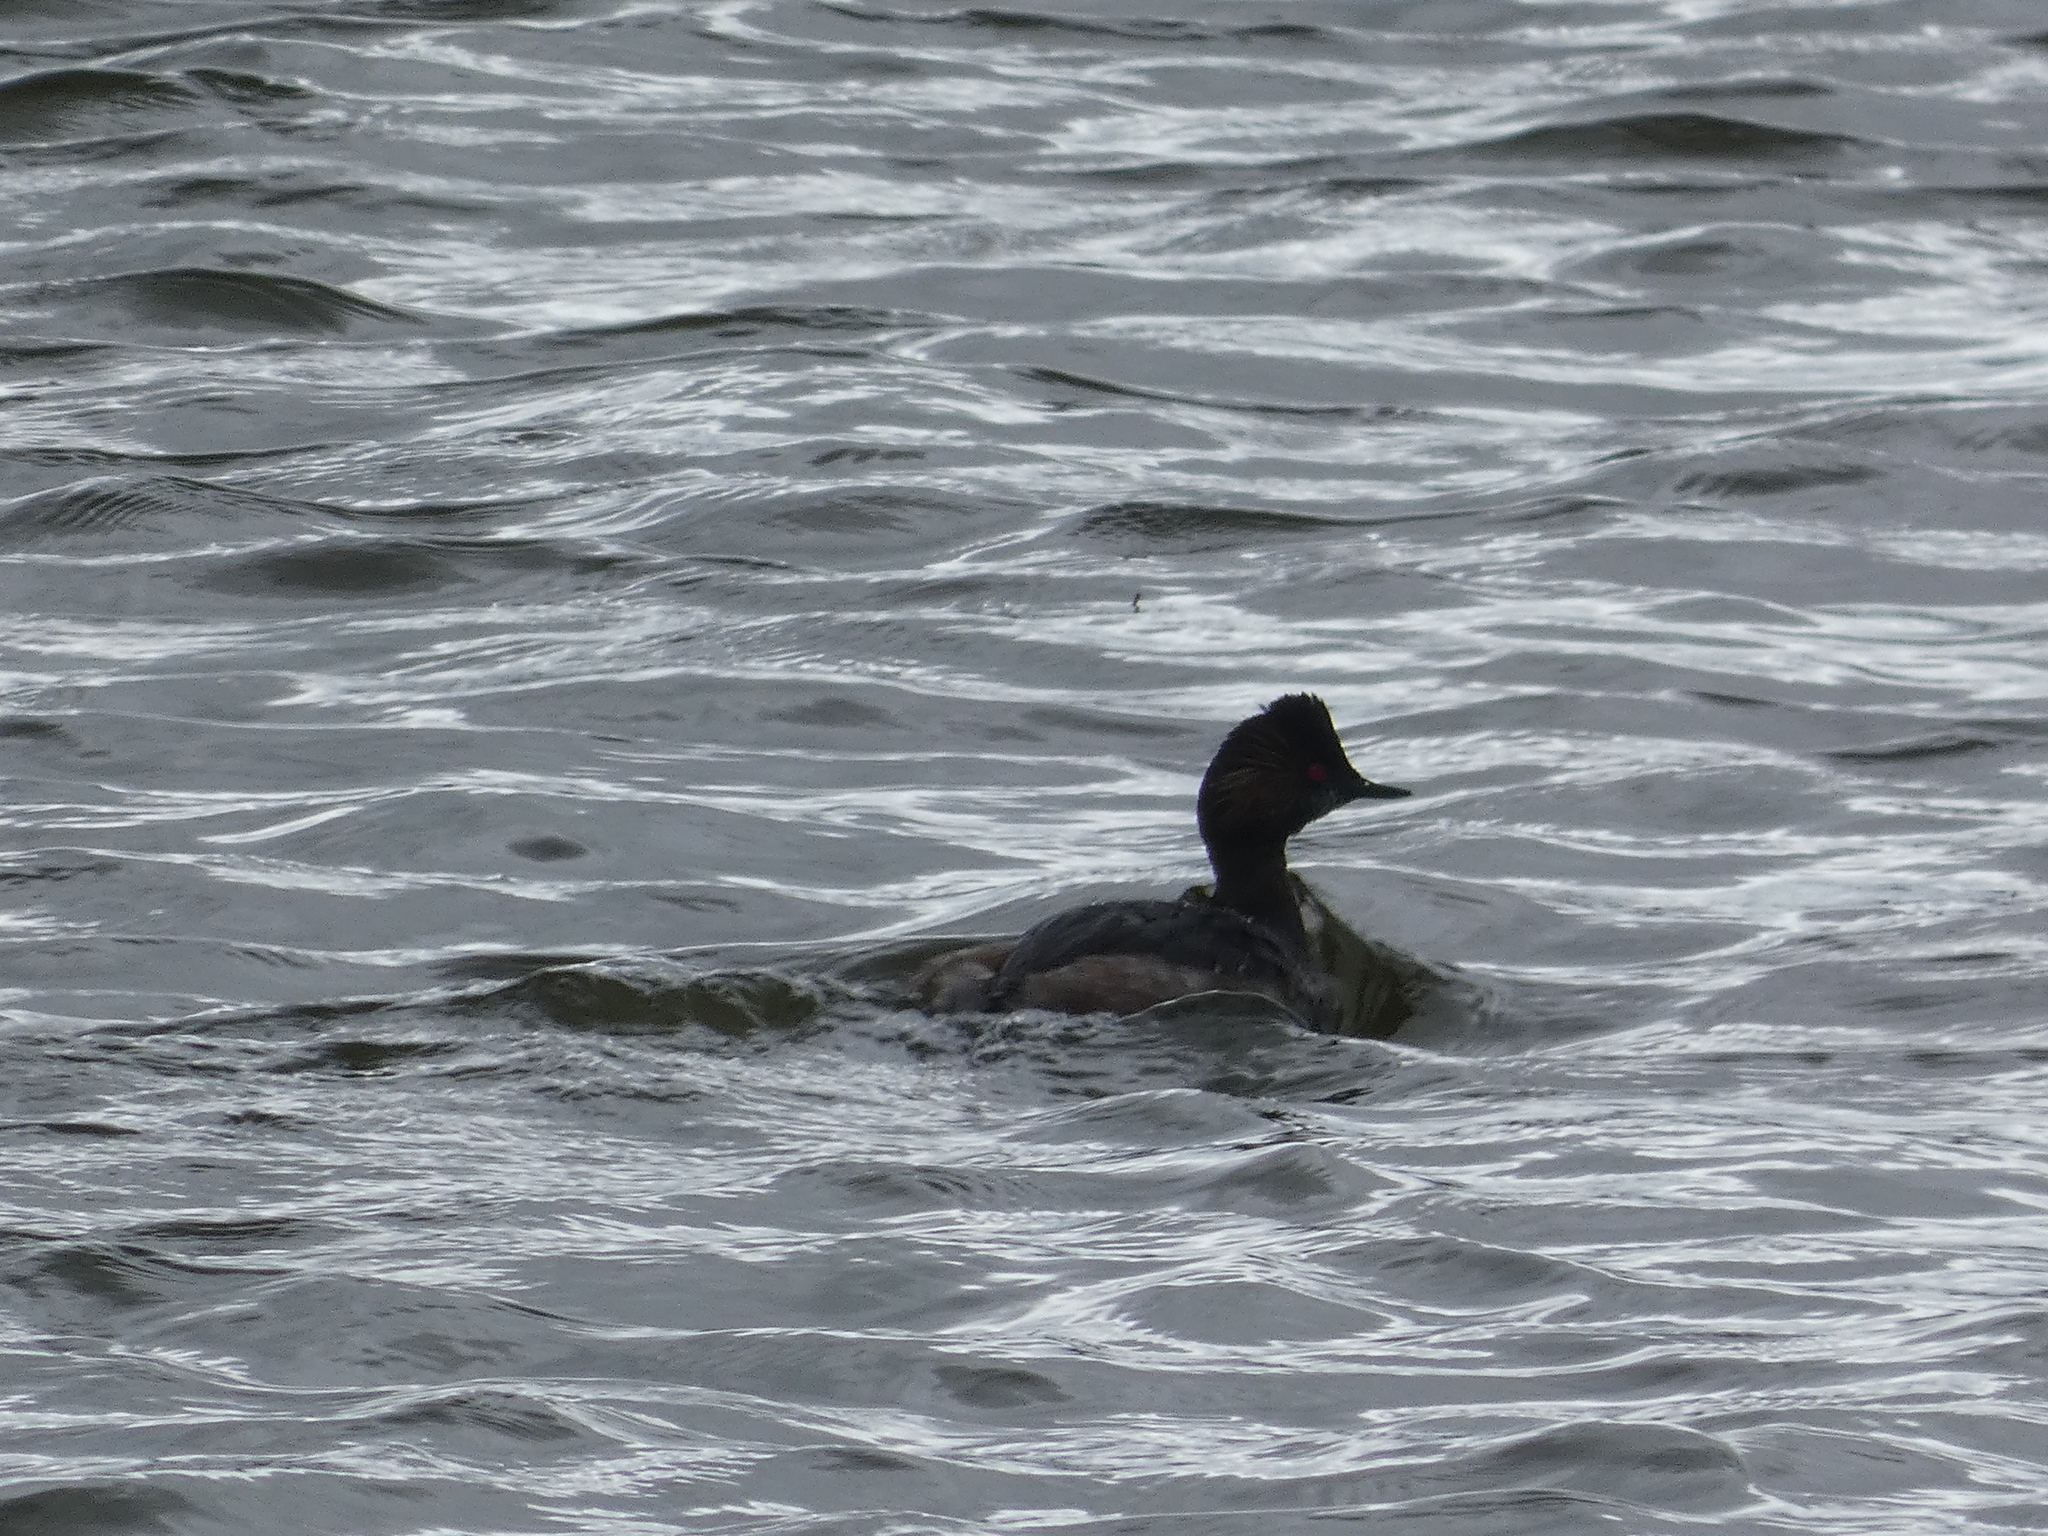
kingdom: Animalia
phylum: Chordata
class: Aves
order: Podicipediformes
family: Podicipedidae
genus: Podiceps
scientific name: Podiceps nigricollis
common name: Black-necked grebe
